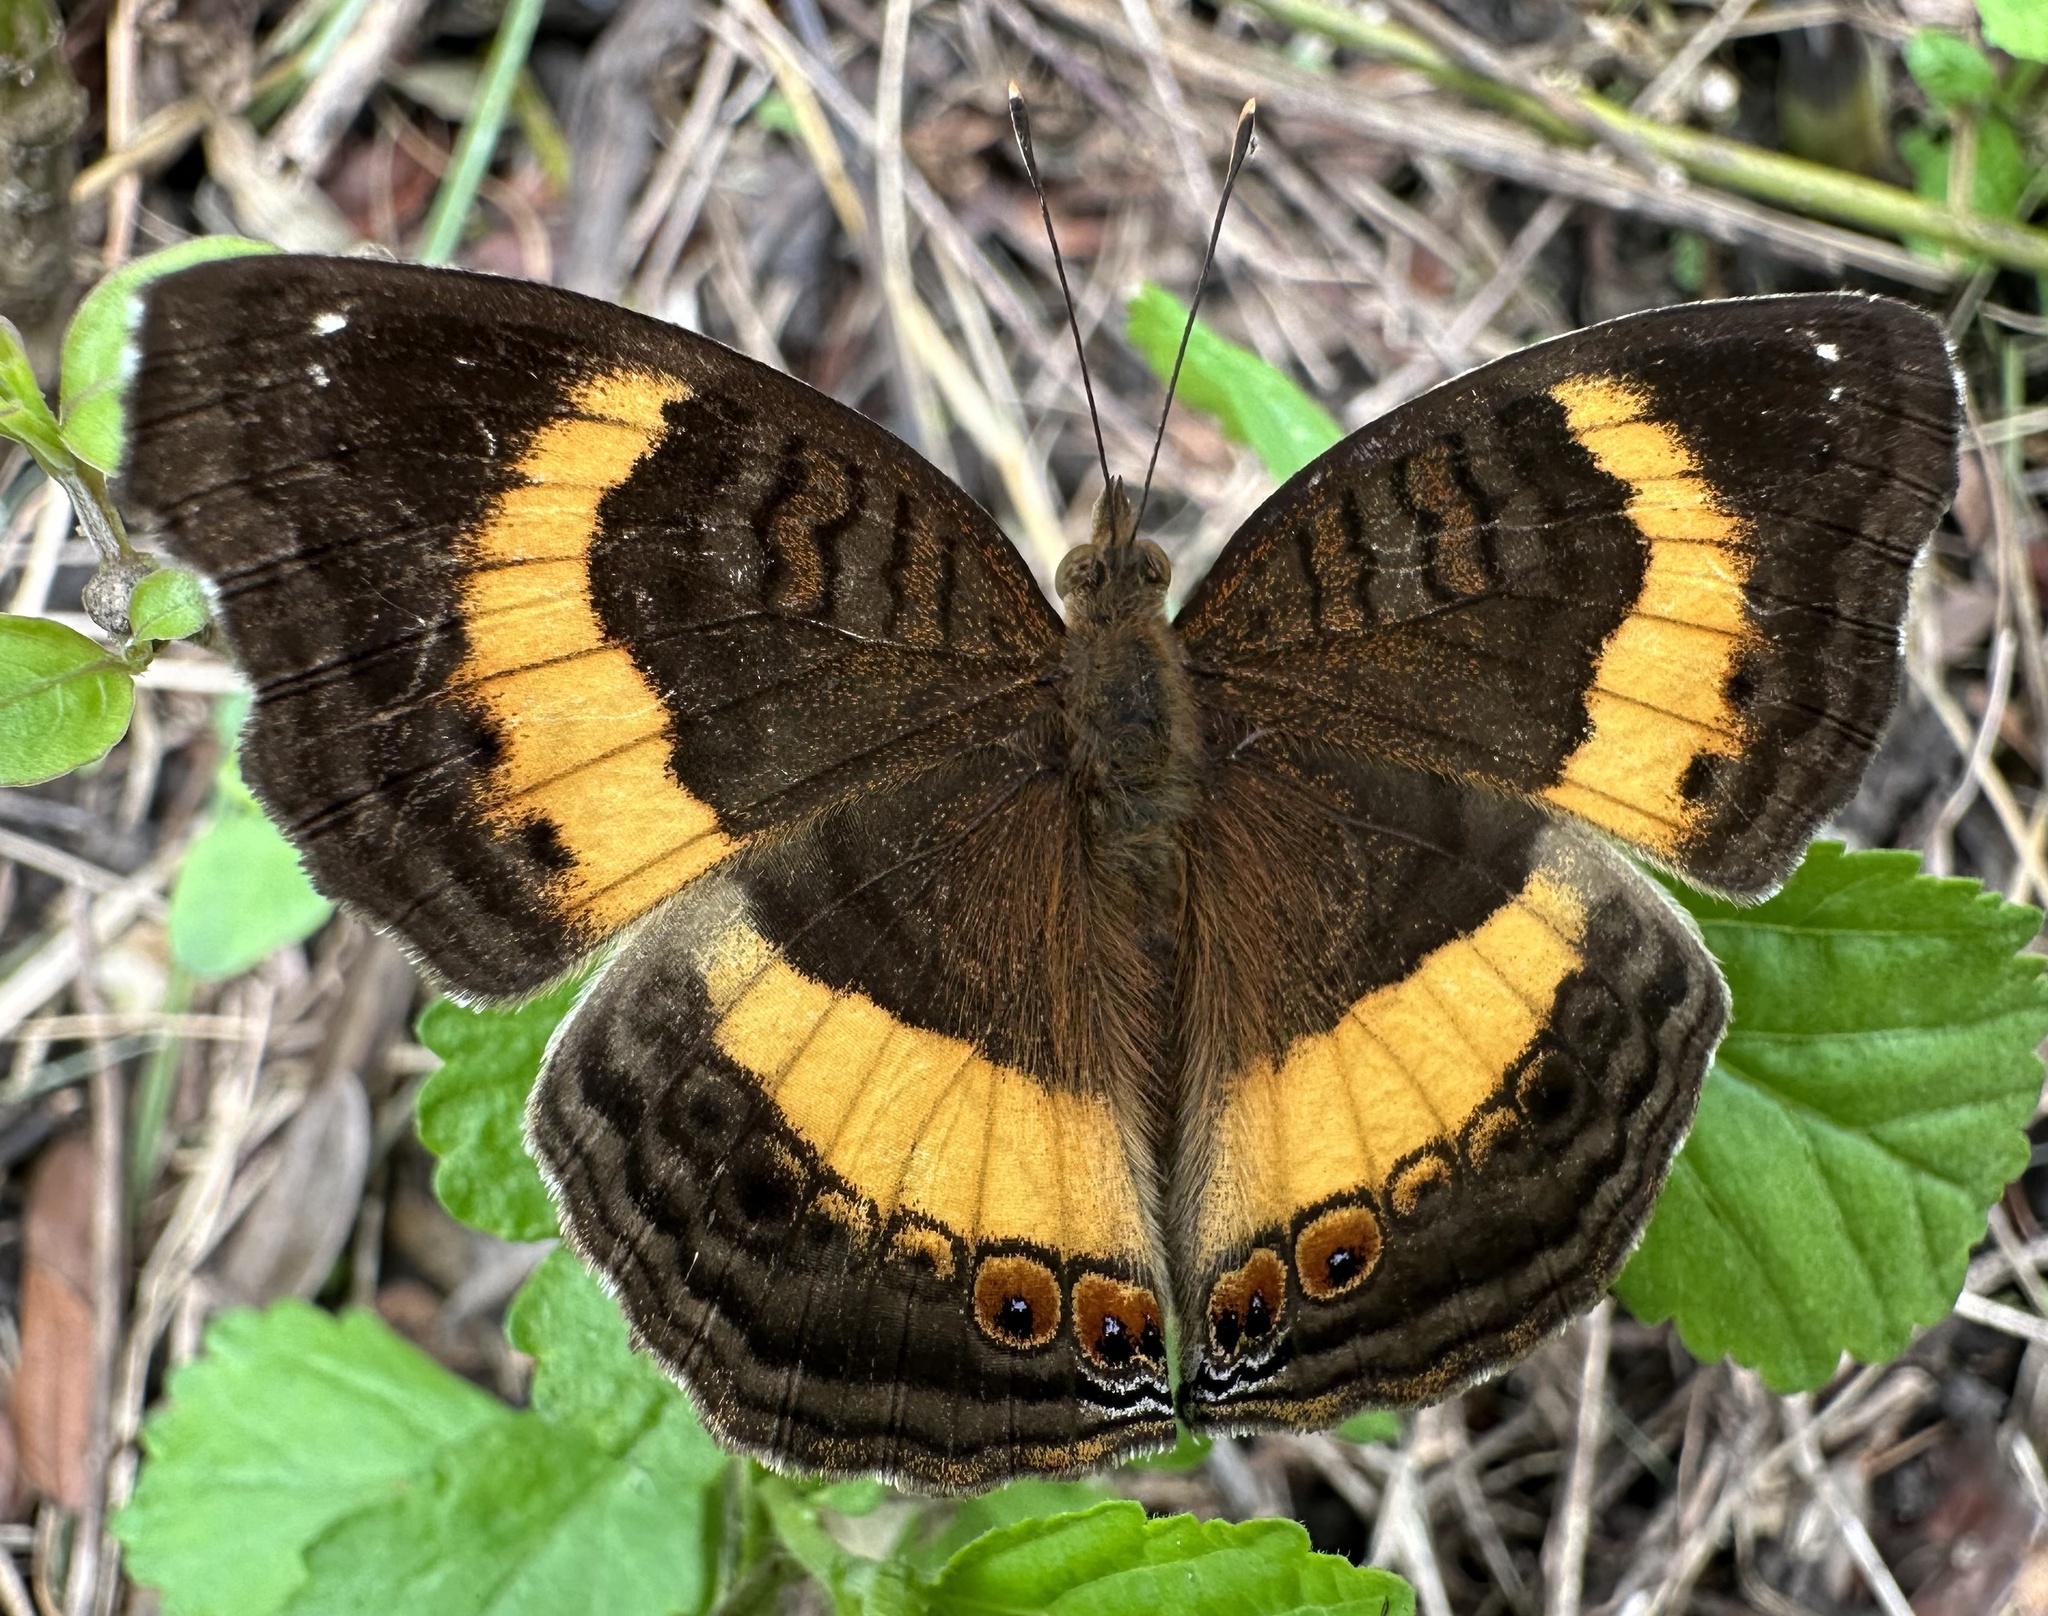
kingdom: Animalia
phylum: Arthropoda
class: Insecta
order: Lepidoptera
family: Nymphalidae
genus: Junonia
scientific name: Junonia terea
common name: Soldier pansy
